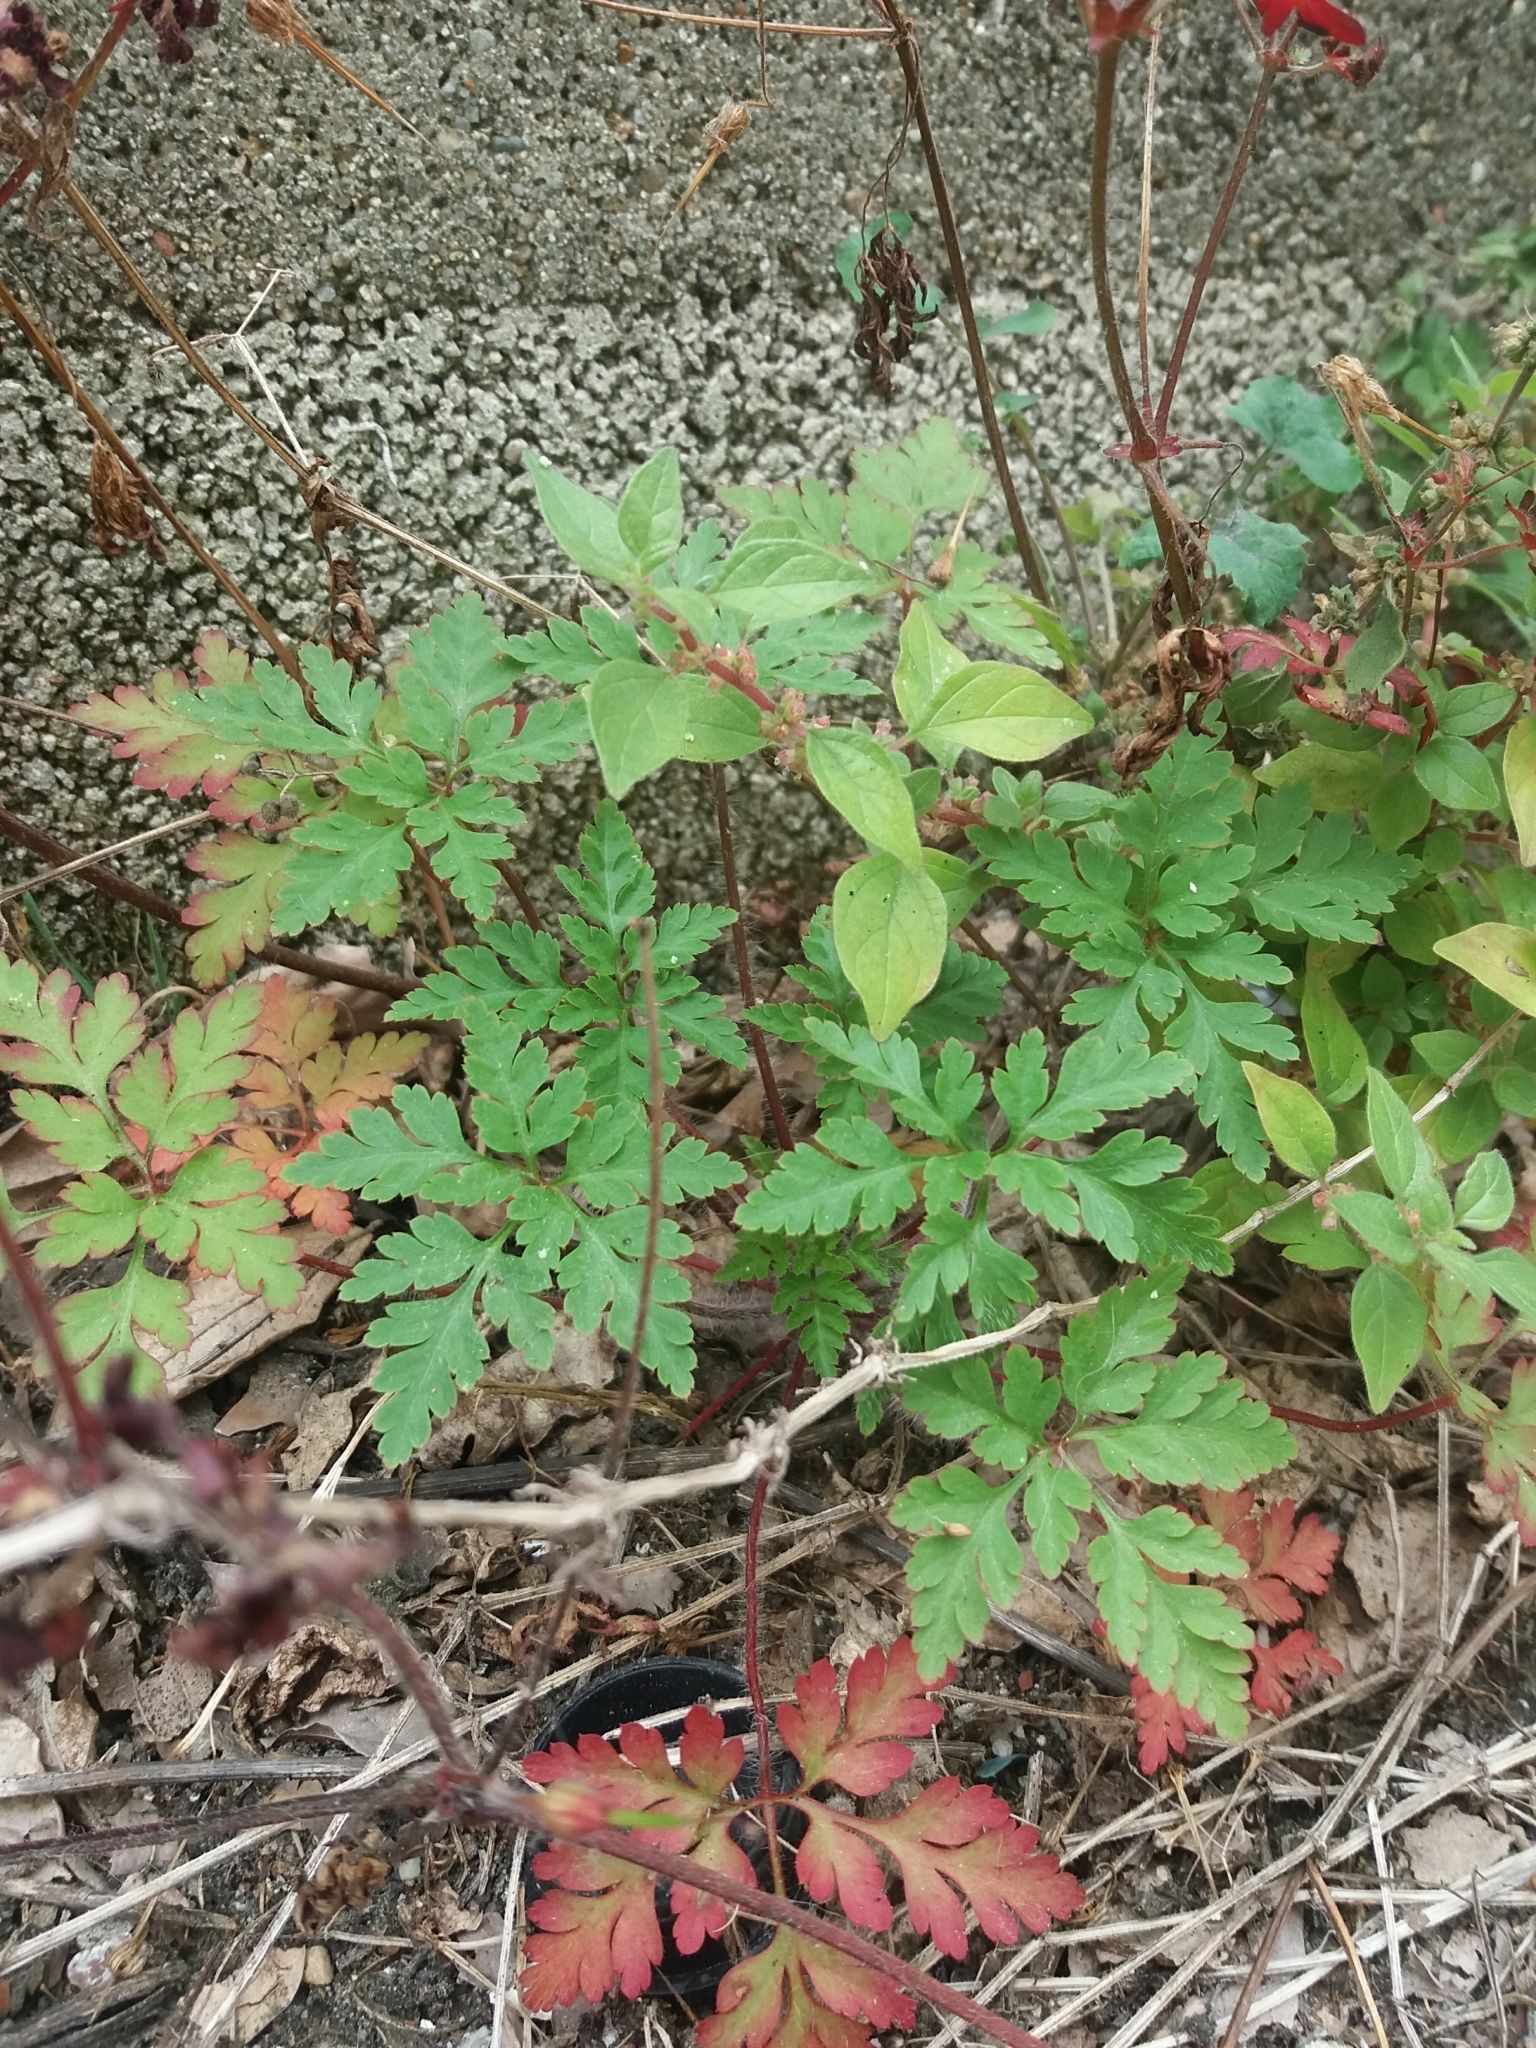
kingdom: Plantae
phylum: Tracheophyta
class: Magnoliopsida
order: Geraniales
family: Geraniaceae
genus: Geranium
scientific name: Geranium purpureum
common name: Little-robin
